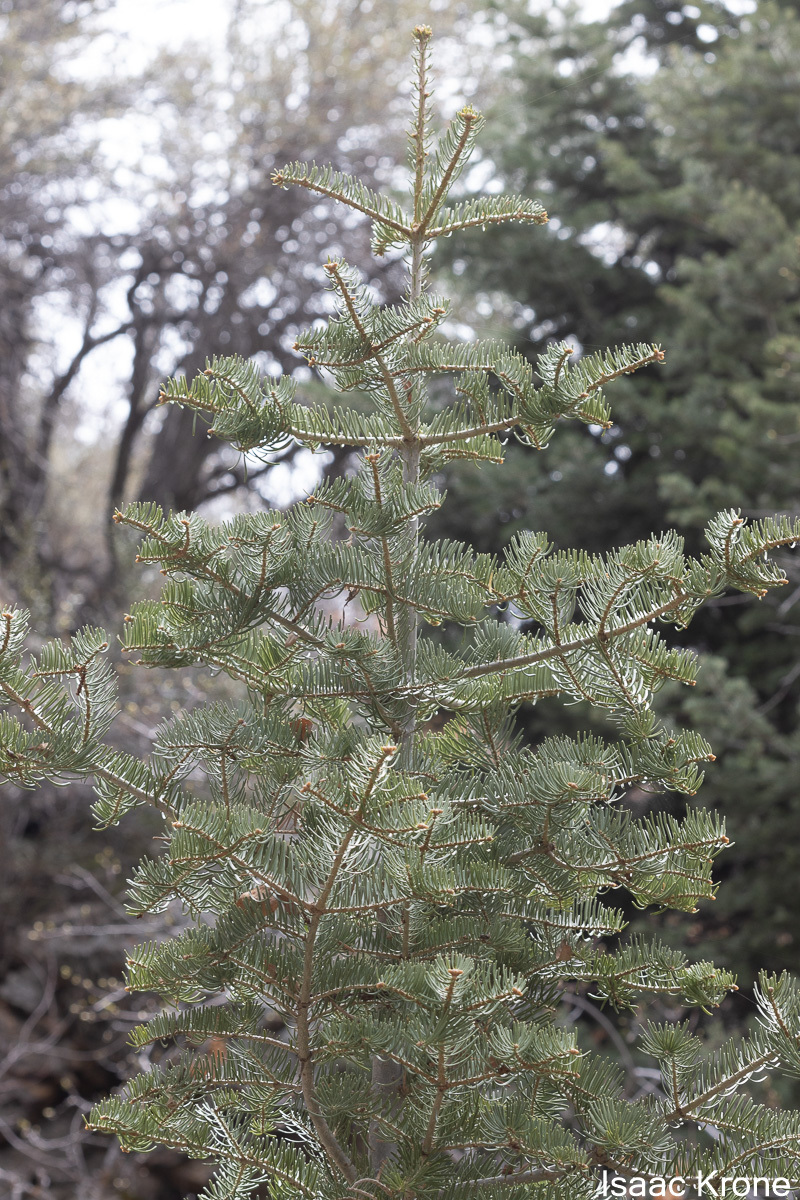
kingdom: Plantae
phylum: Tracheophyta
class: Pinopsida
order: Pinales
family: Pinaceae
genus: Abies
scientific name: Abies concolor
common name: Colorado fir
